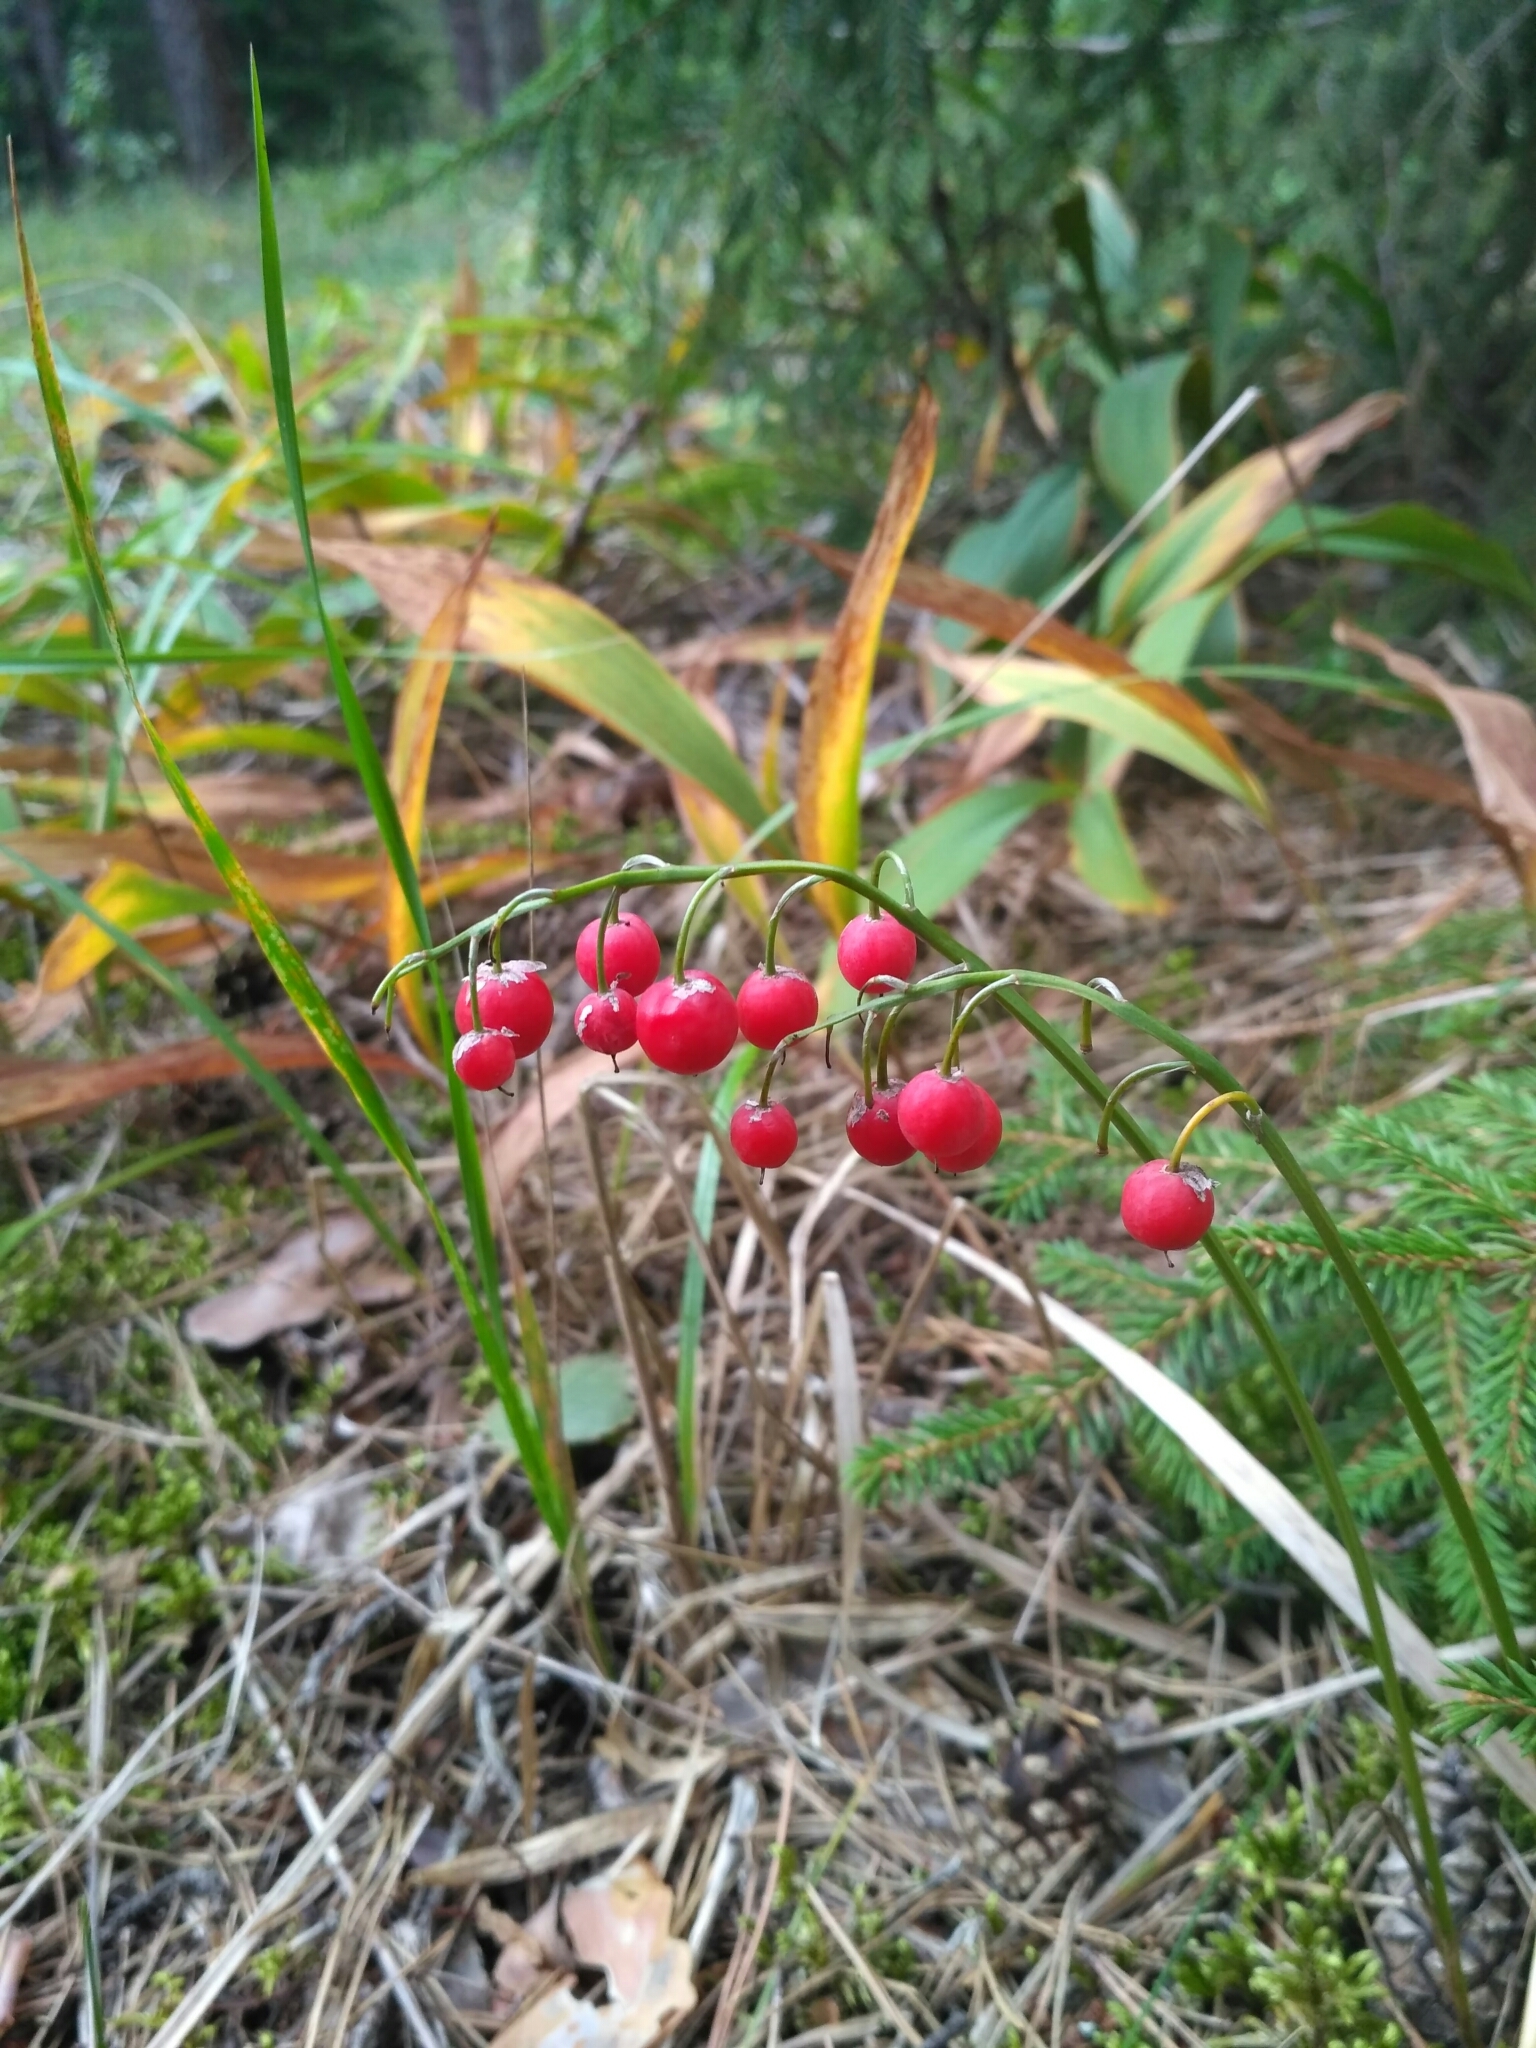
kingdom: Plantae
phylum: Tracheophyta
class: Liliopsida
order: Asparagales
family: Asparagaceae
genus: Convallaria
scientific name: Convallaria majalis
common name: Lily-of-the-valley
